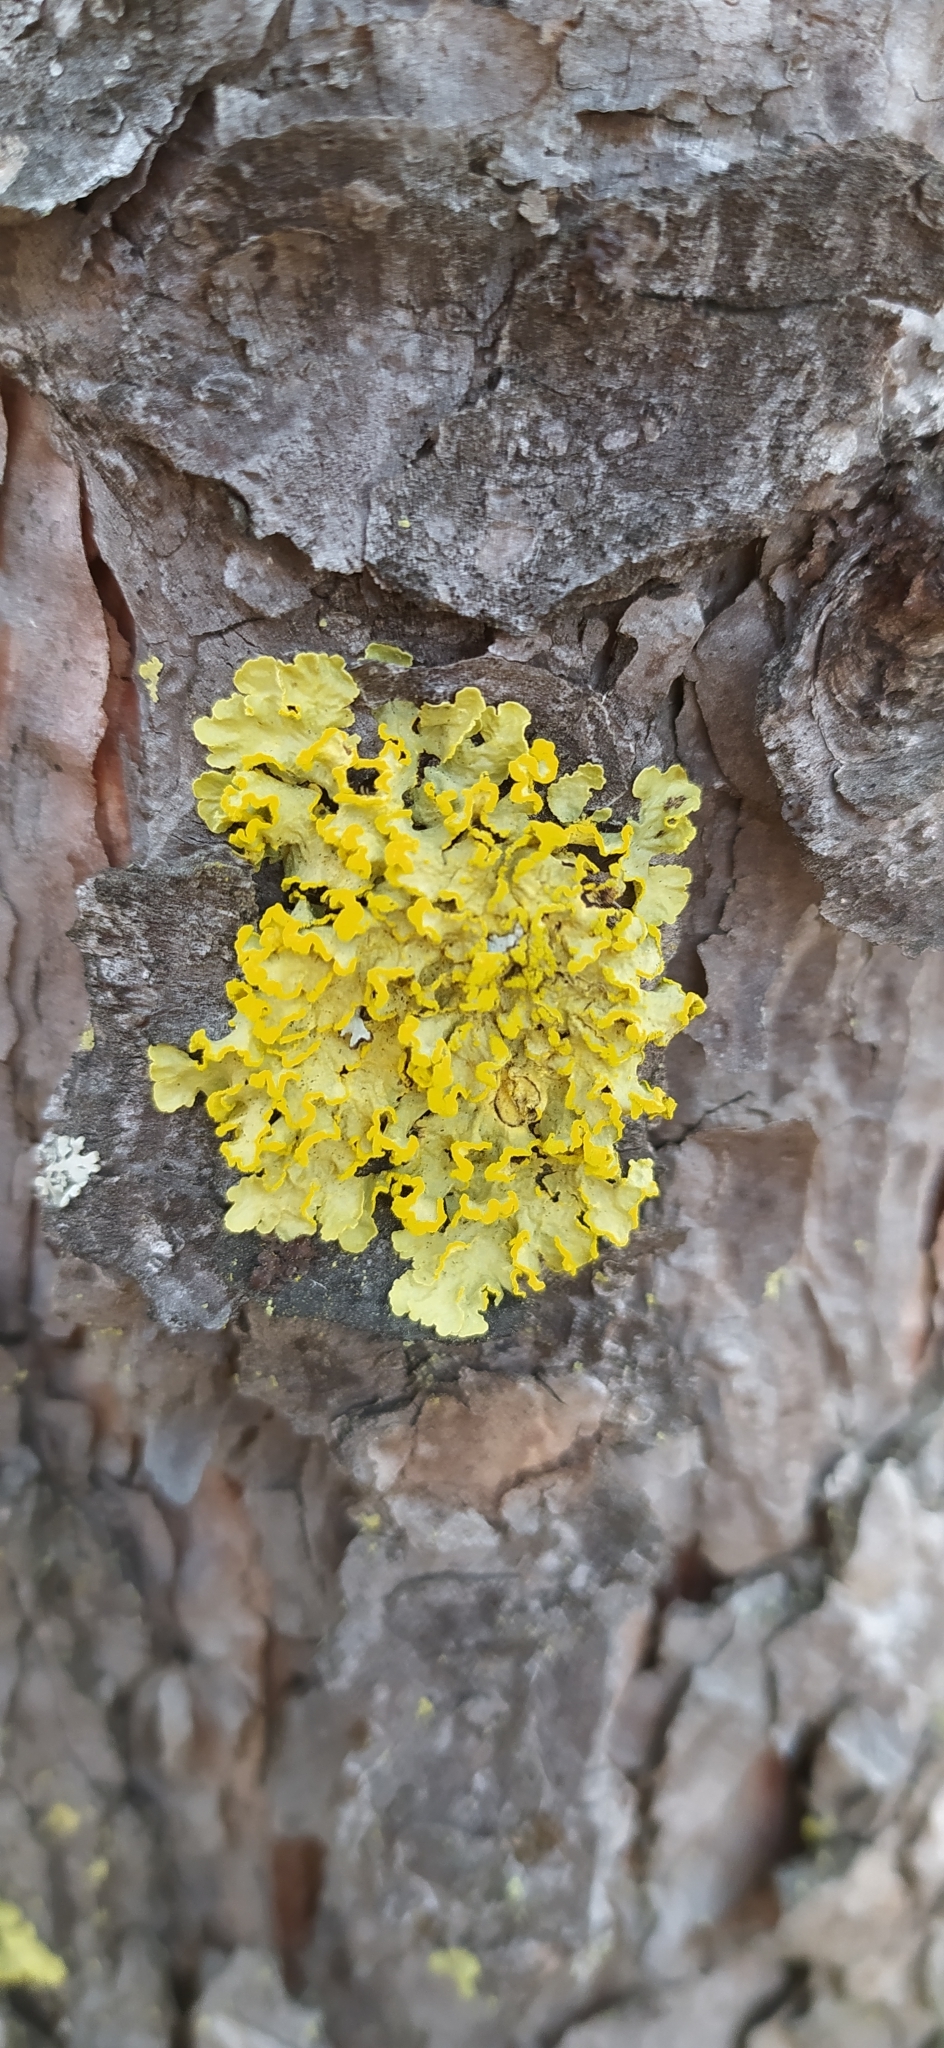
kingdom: Fungi
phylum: Ascomycota
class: Lecanoromycetes
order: Lecanorales
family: Parmeliaceae
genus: Vulpicida
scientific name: Vulpicida pinastri
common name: Powdered sunshine lichen
